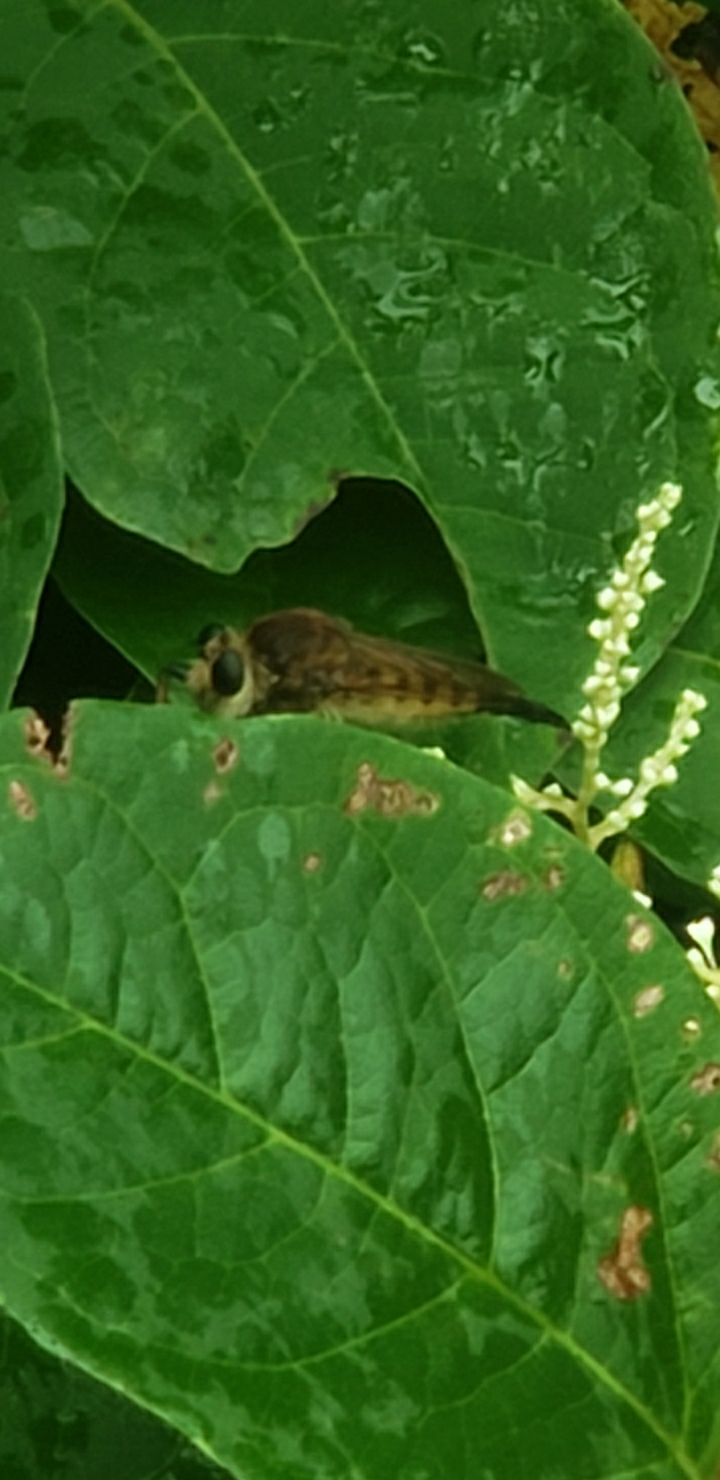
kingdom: Animalia
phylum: Arthropoda
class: Insecta
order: Diptera
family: Asilidae
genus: Promachus
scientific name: Promachus rufipes
